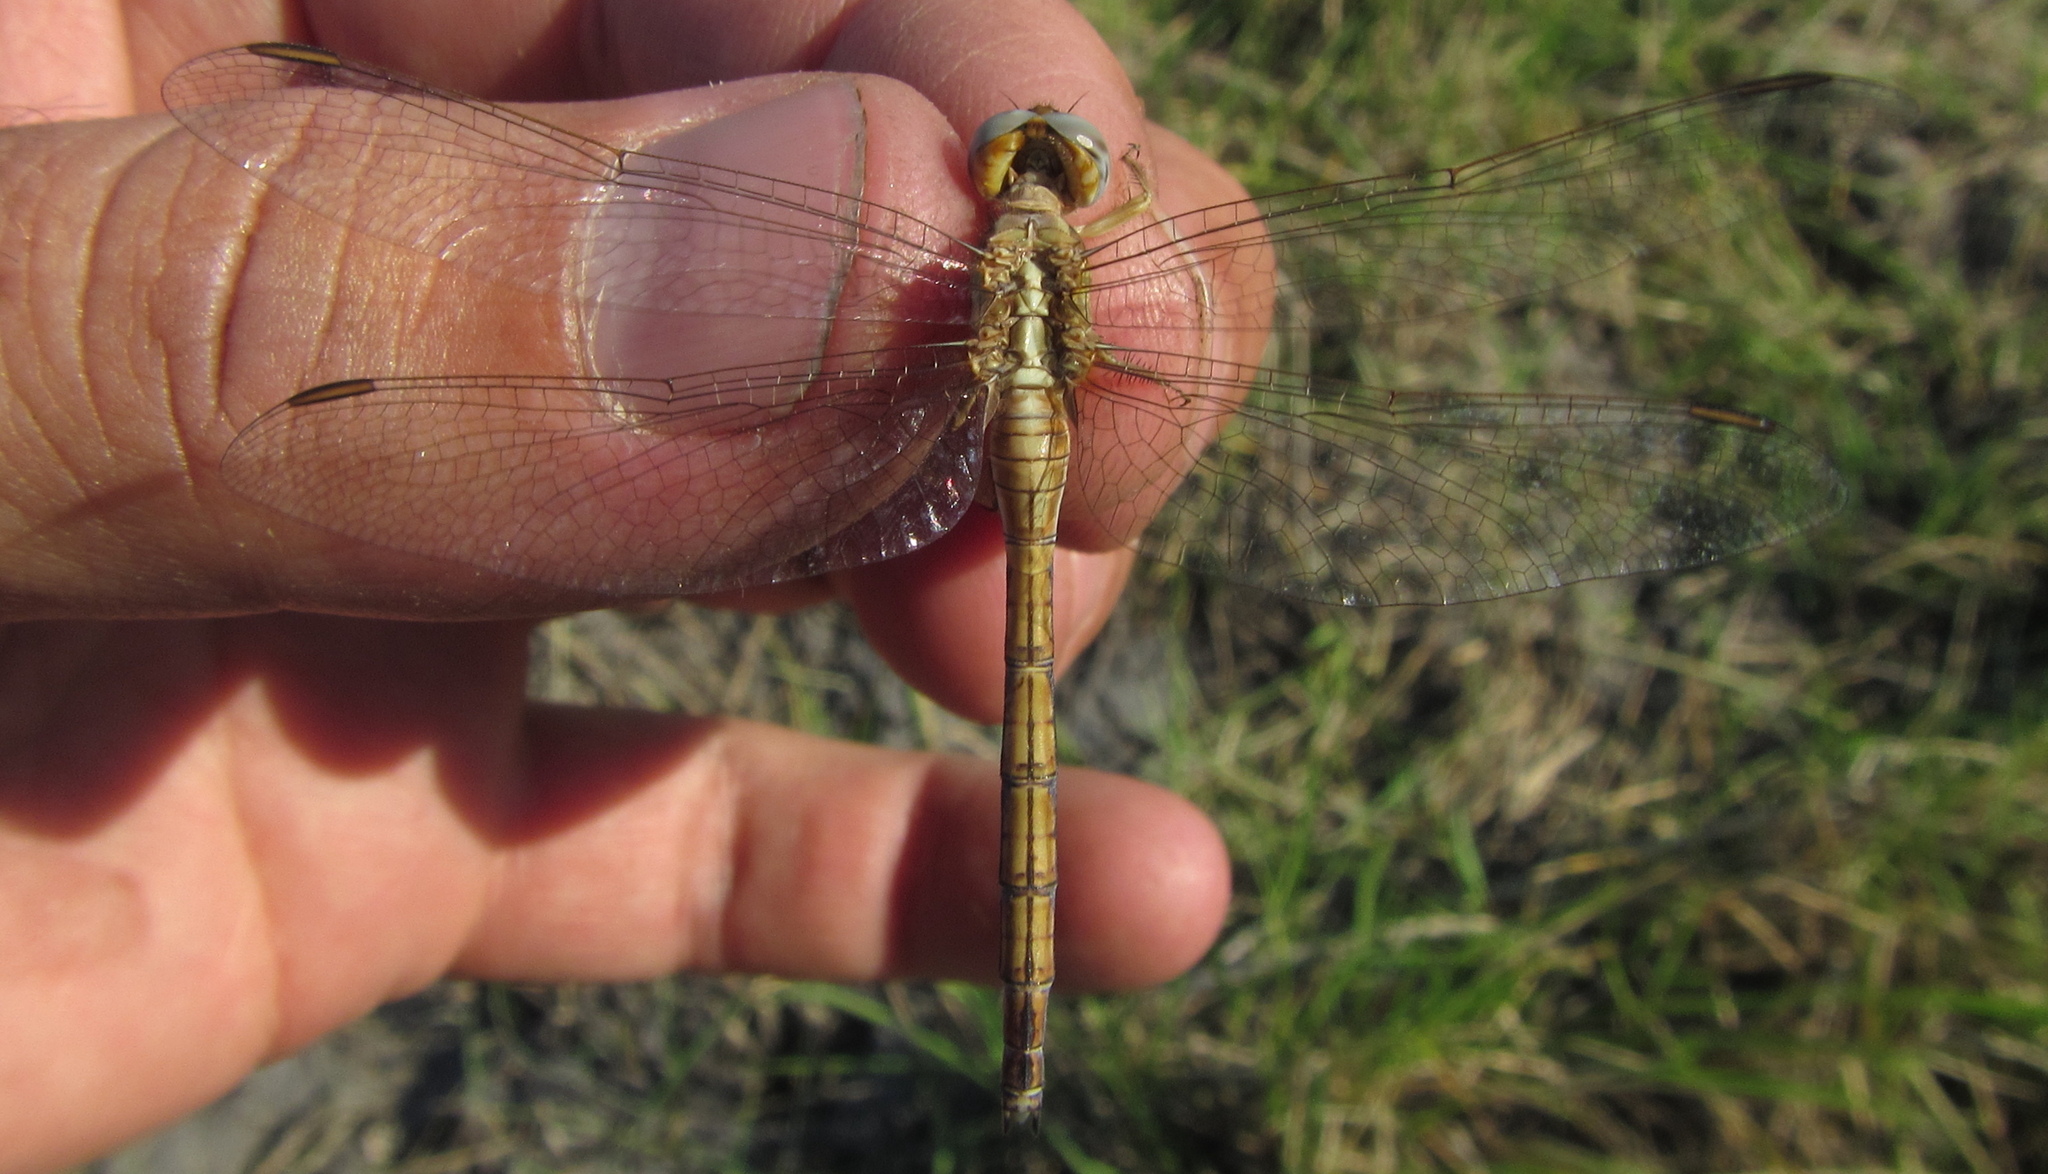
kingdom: Animalia
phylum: Arthropoda
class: Insecta
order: Odonata
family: Libellulidae
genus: Orthetrum
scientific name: Orthetrum machadoi
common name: Highland skimmer
